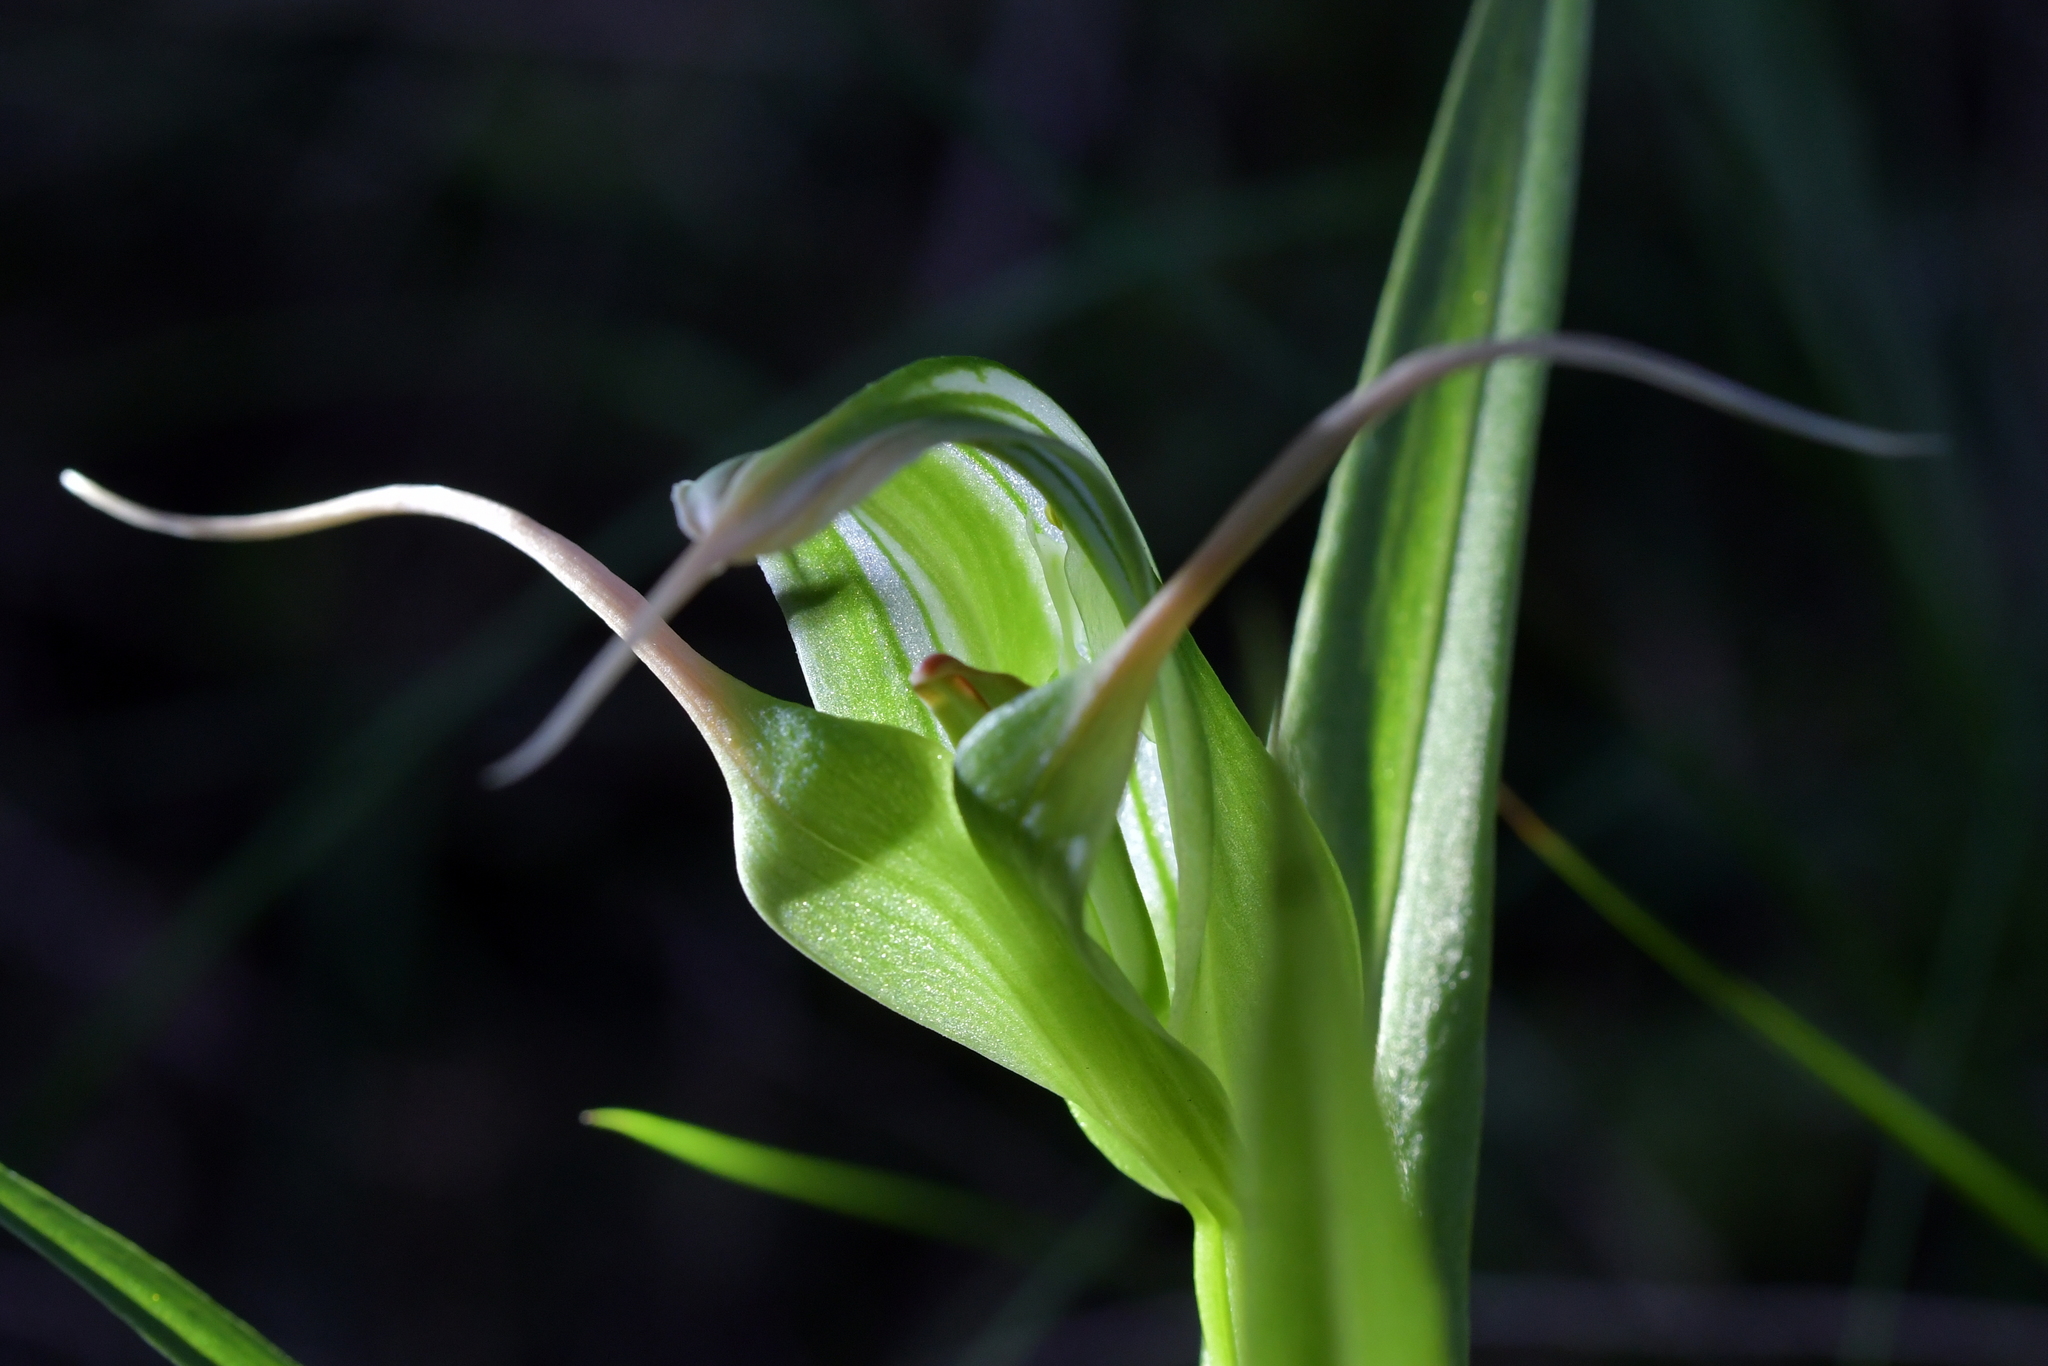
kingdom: Plantae
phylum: Tracheophyta
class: Liliopsida
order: Asparagales
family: Orchidaceae
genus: Pterostylis
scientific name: Pterostylis banksii
